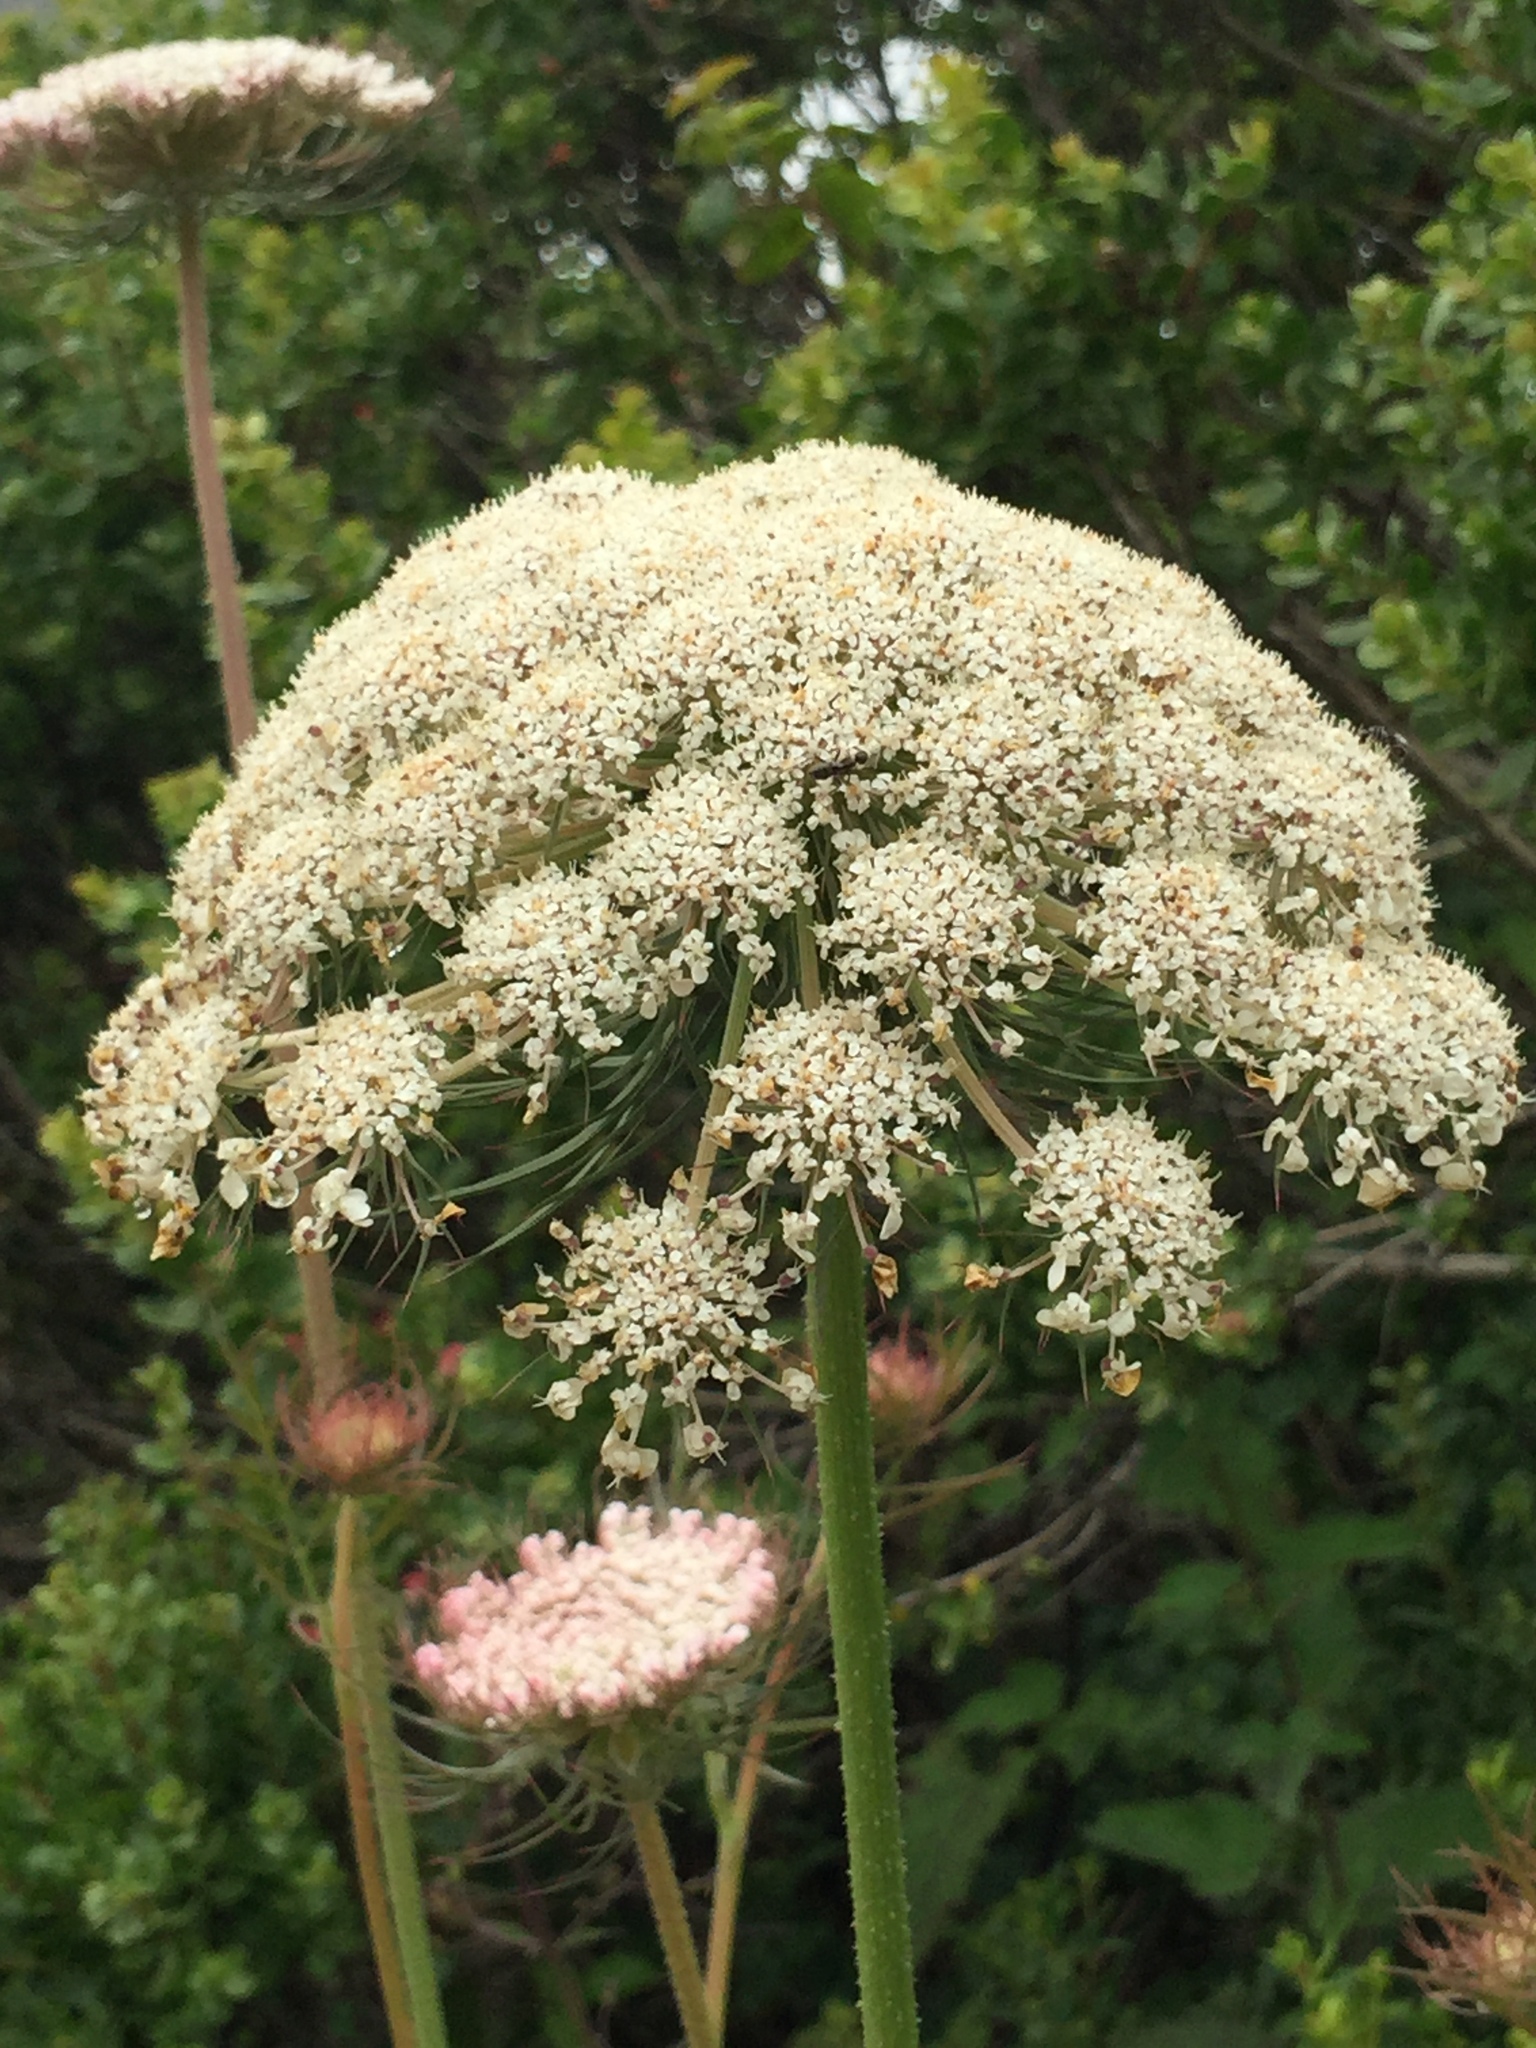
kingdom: Plantae
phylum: Tracheophyta
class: Magnoliopsida
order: Apiales
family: Apiaceae
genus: Daucus
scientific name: Daucus carota
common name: Wild carrot
